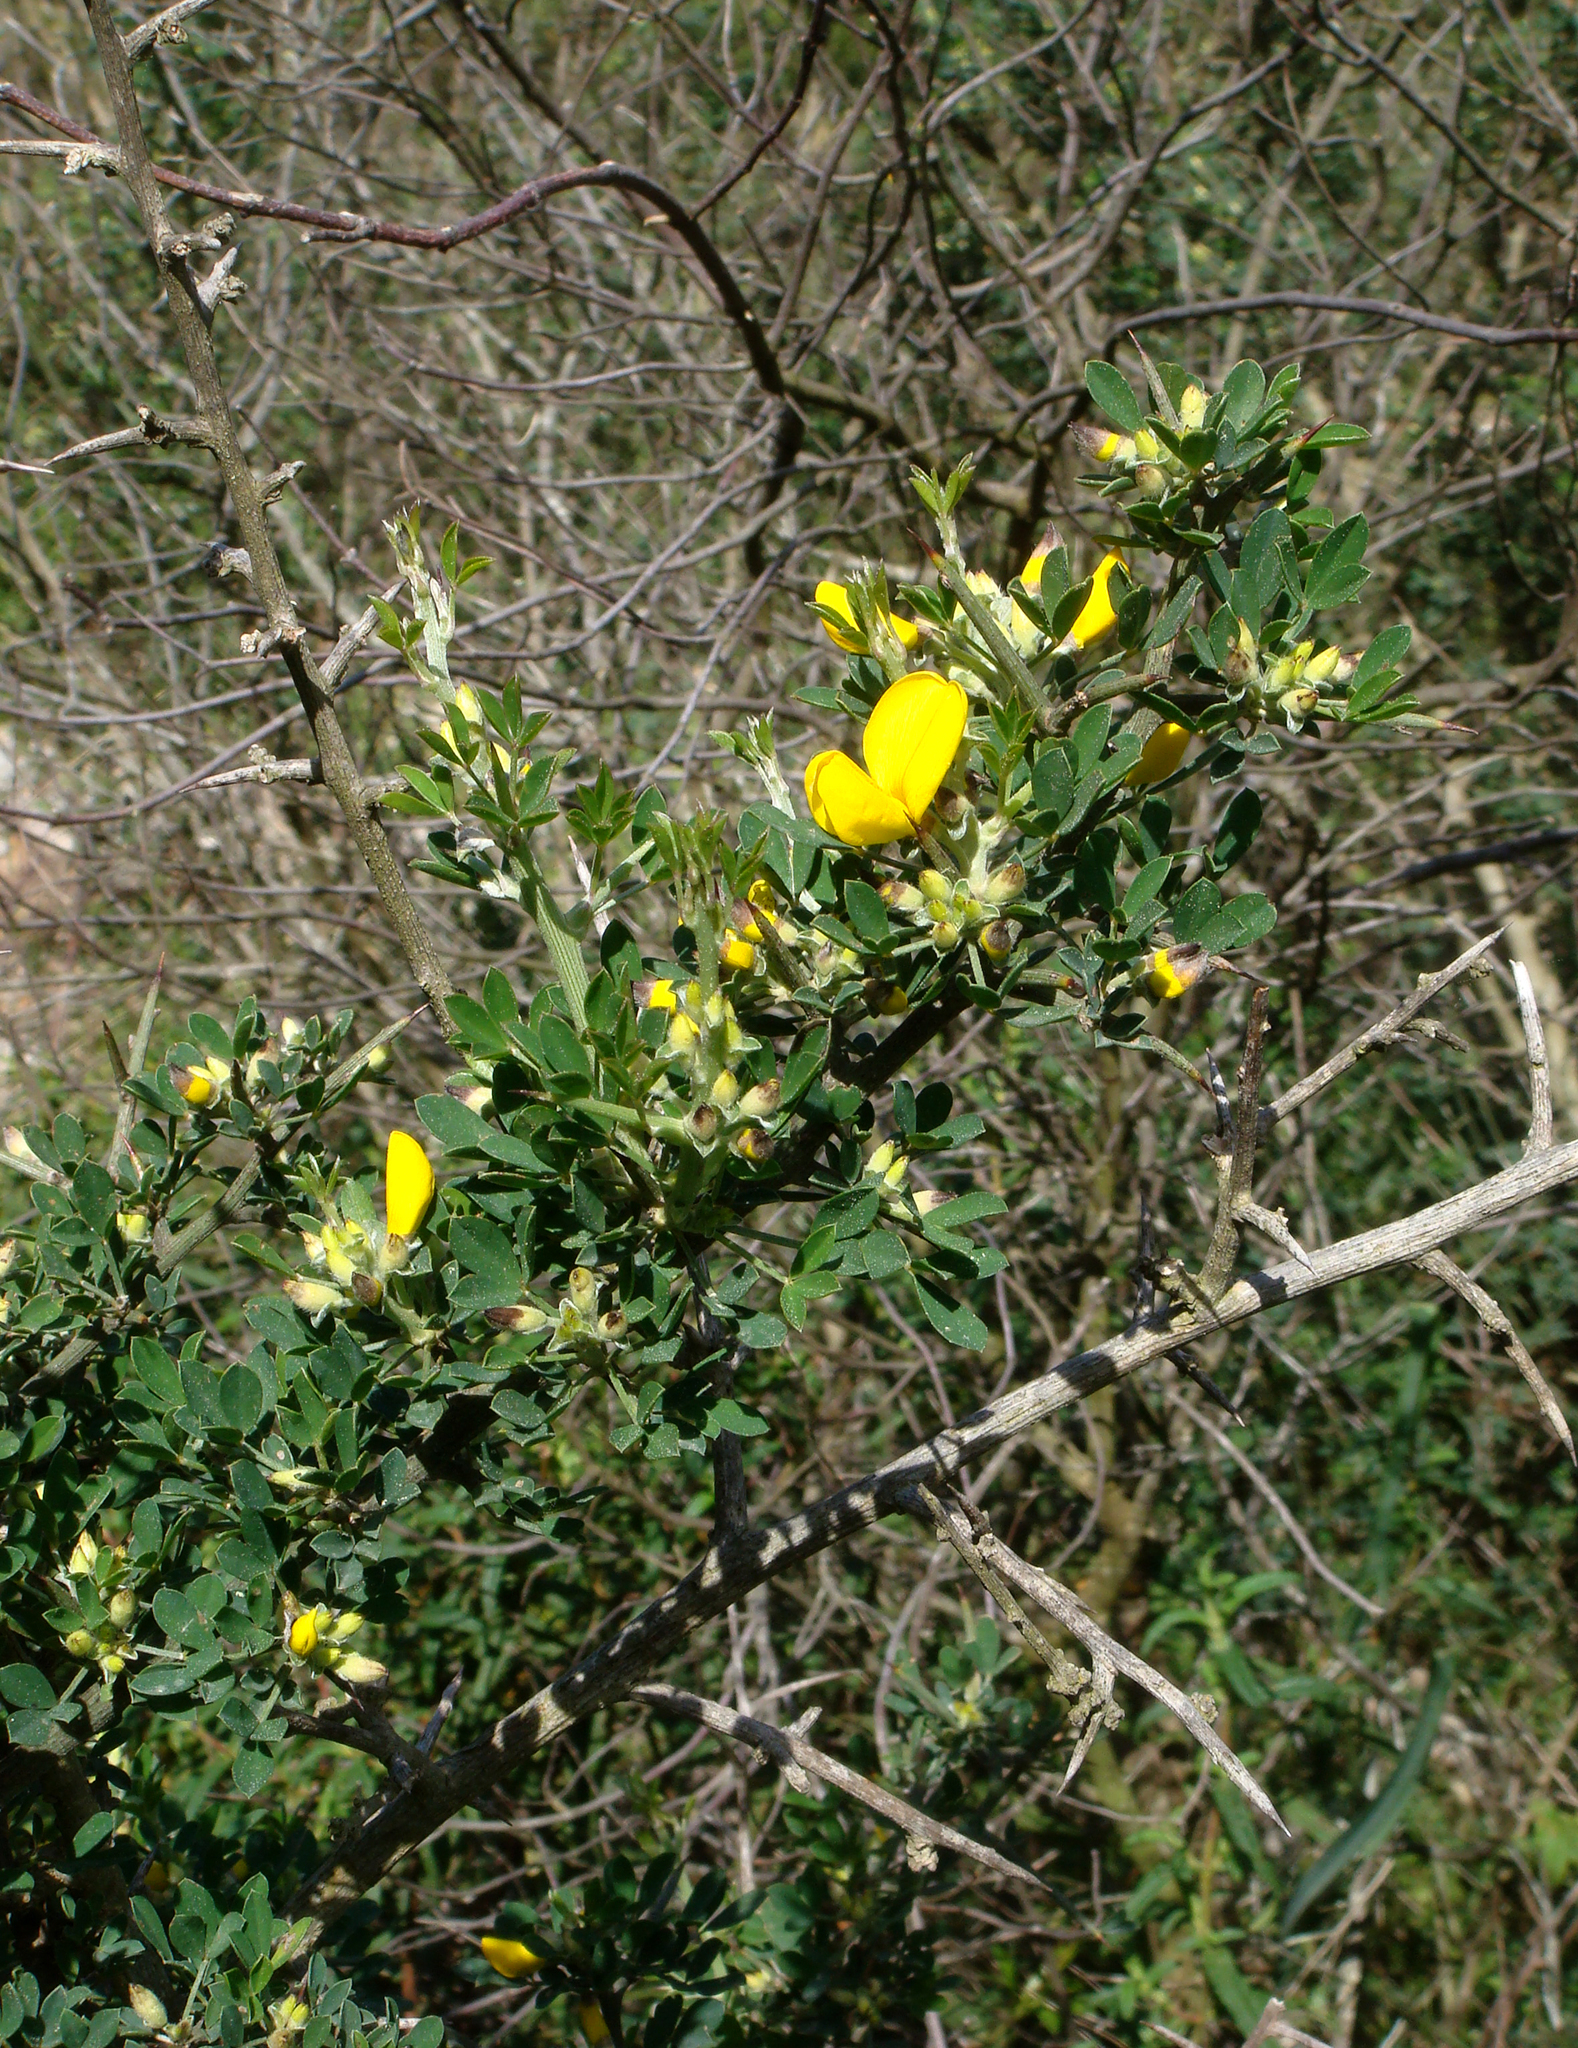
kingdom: Plantae
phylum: Tracheophyta
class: Magnoliopsida
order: Fabales
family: Fabaceae
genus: Calicotome
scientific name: Calicotome villosa
